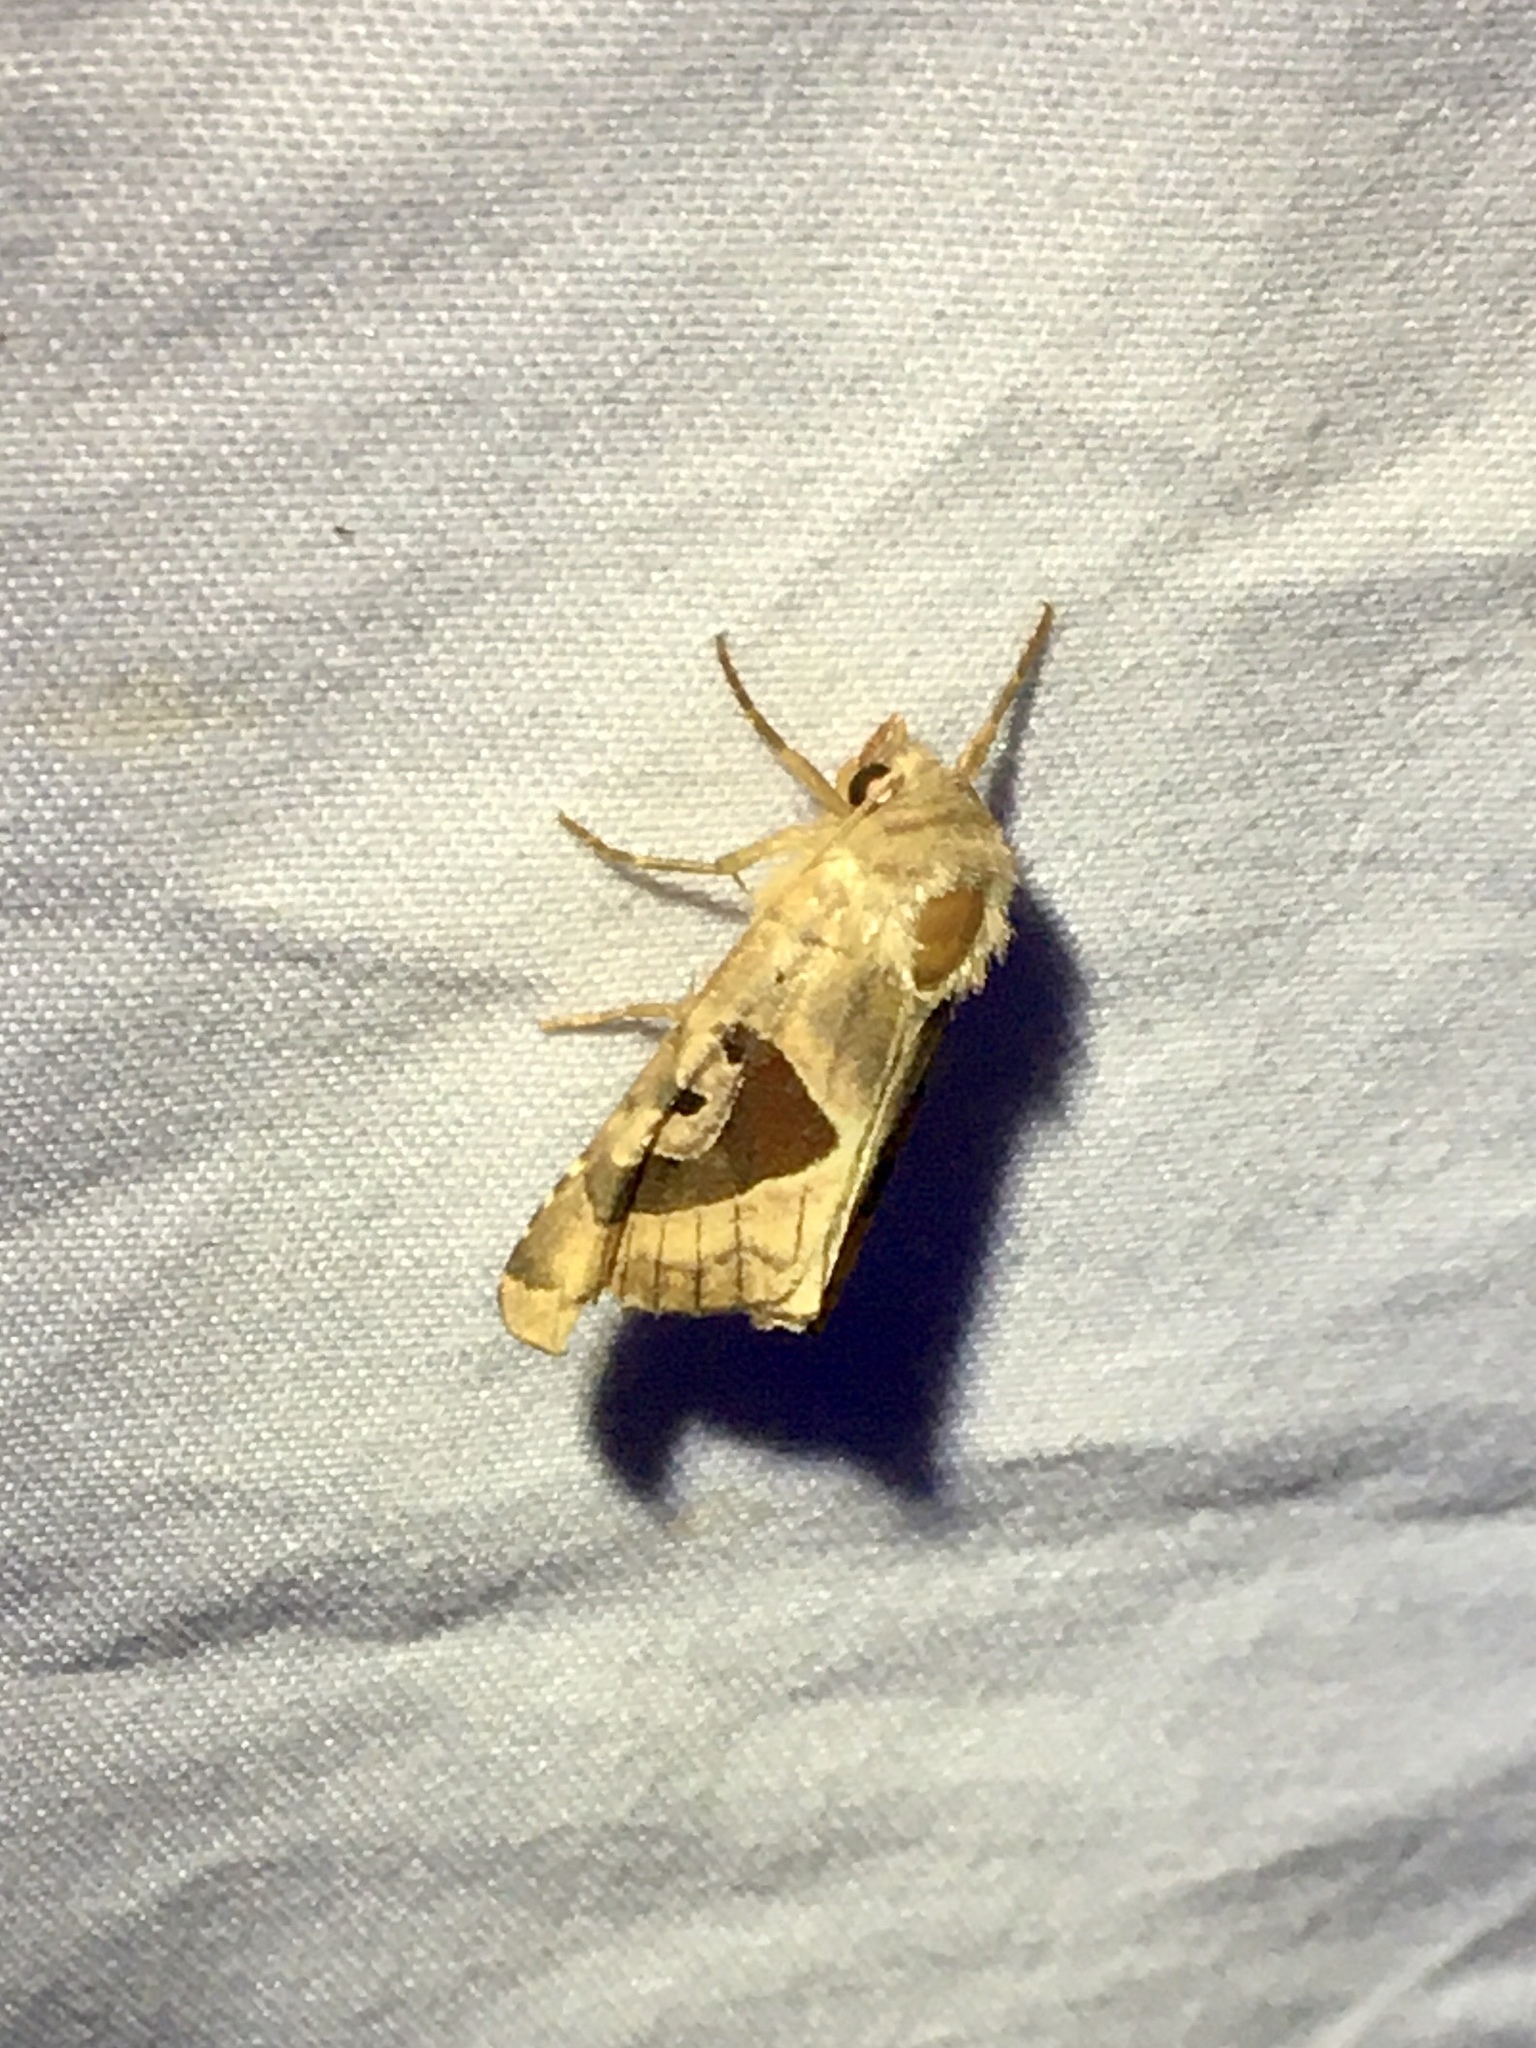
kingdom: Animalia
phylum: Arthropoda
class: Insecta
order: Lepidoptera
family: Noctuidae
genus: Conservula
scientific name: Conservula anodonta
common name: Sharp angle shades
